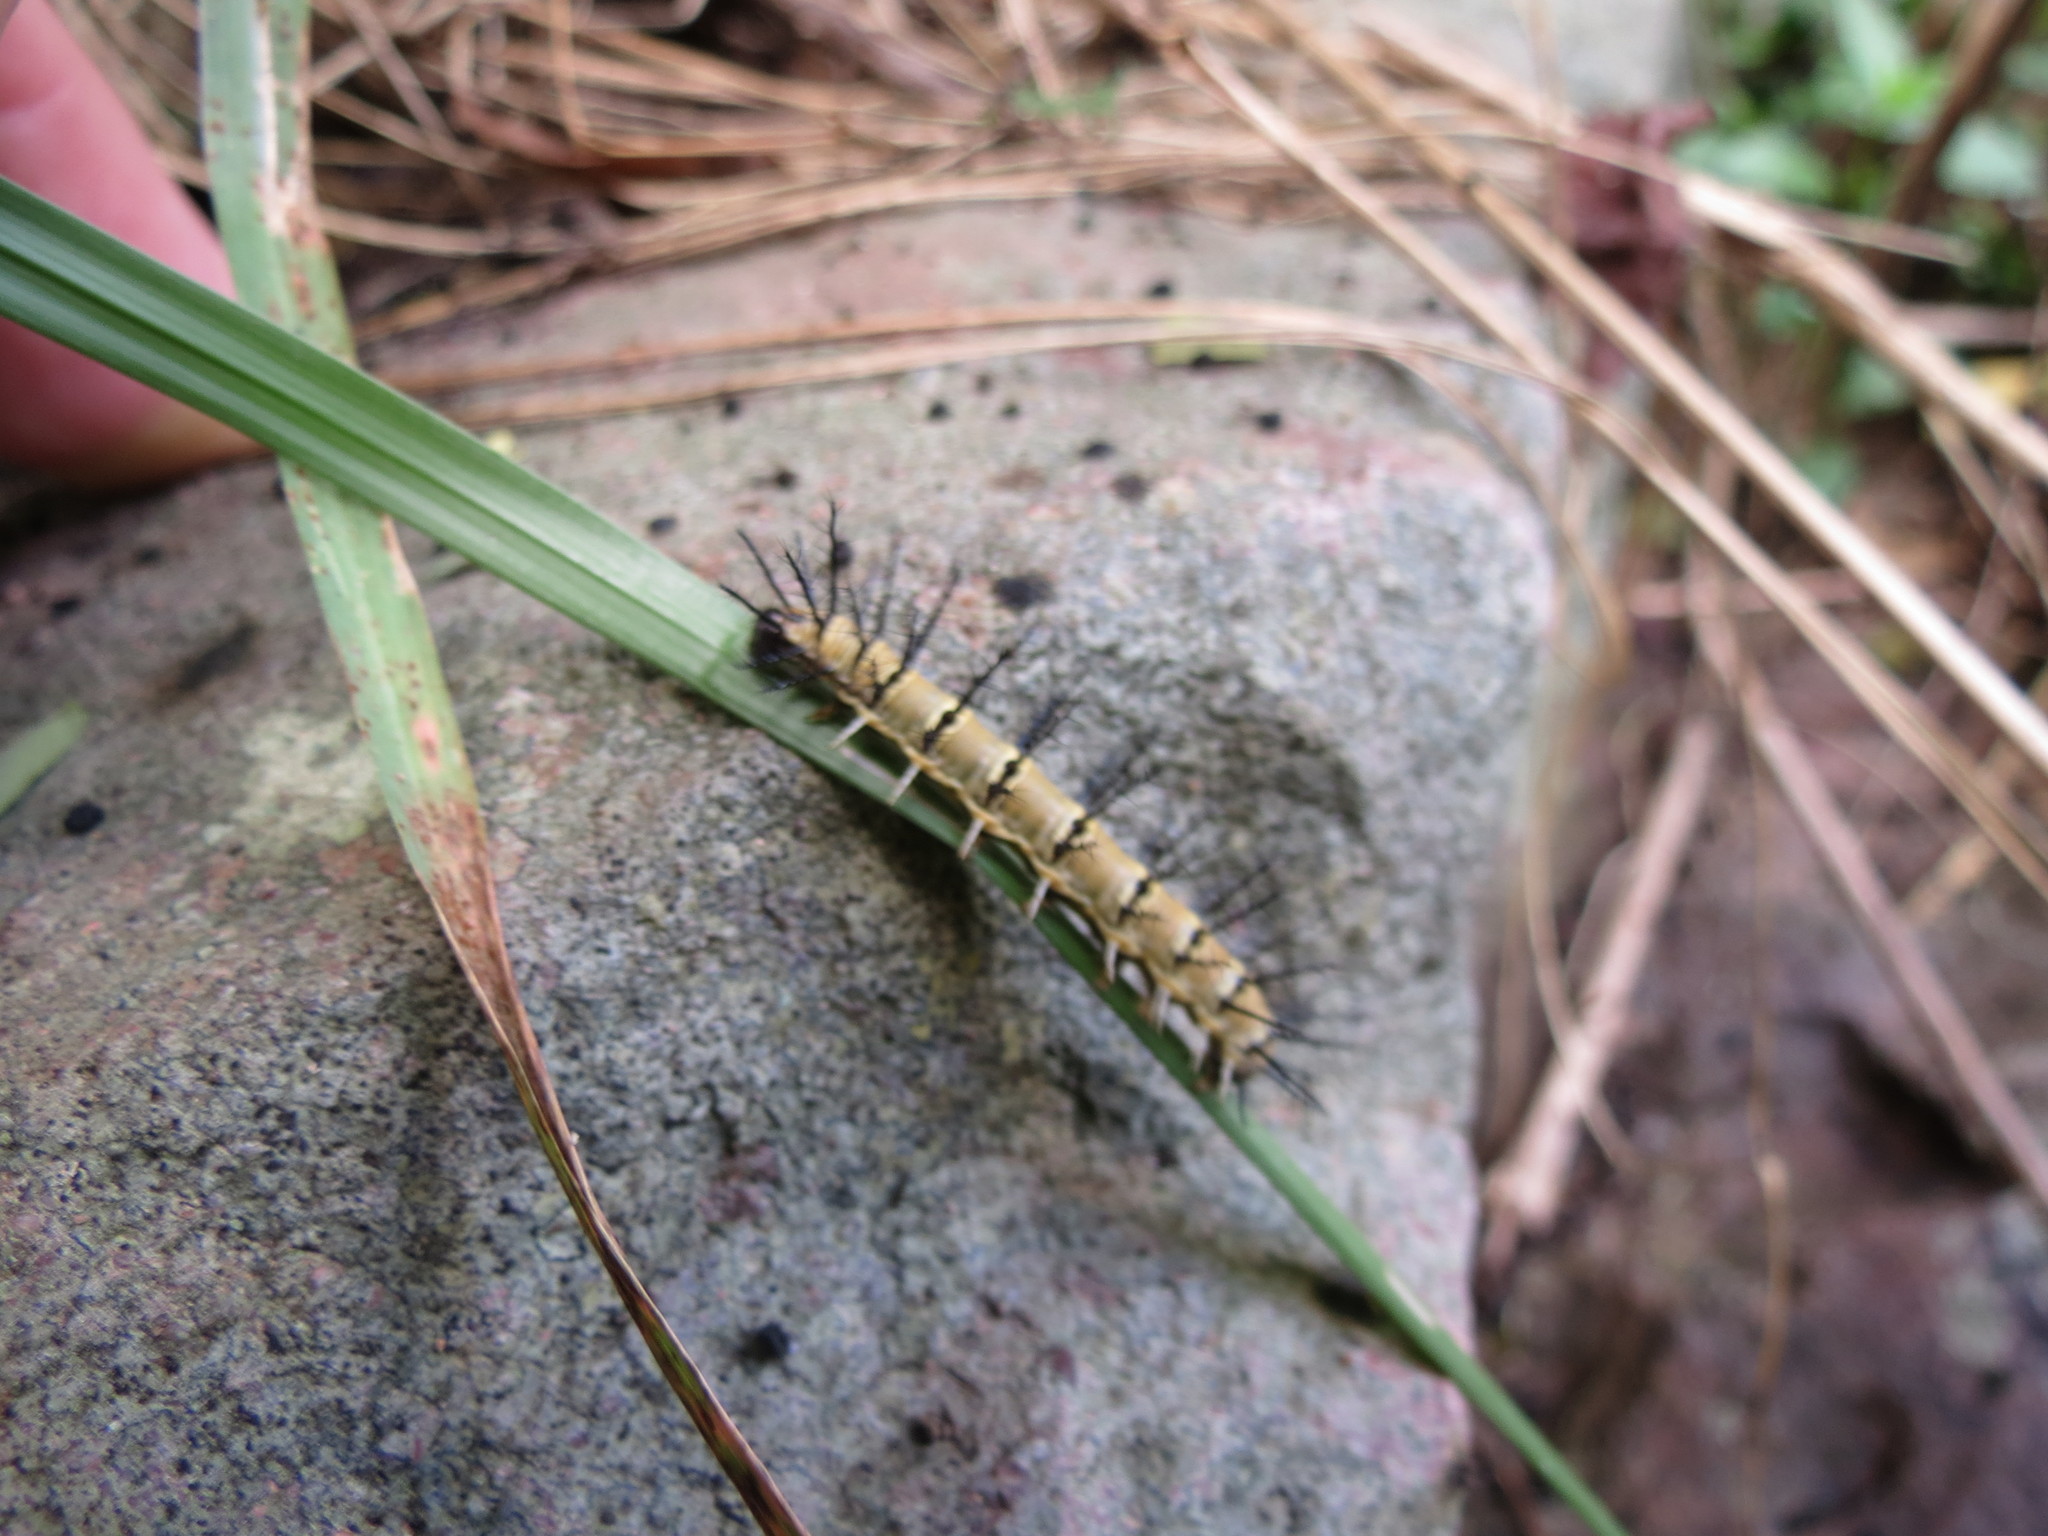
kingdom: Animalia
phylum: Arthropoda
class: Insecta
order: Lepidoptera
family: Nymphalidae
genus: Acraea
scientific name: Acraea esebria
